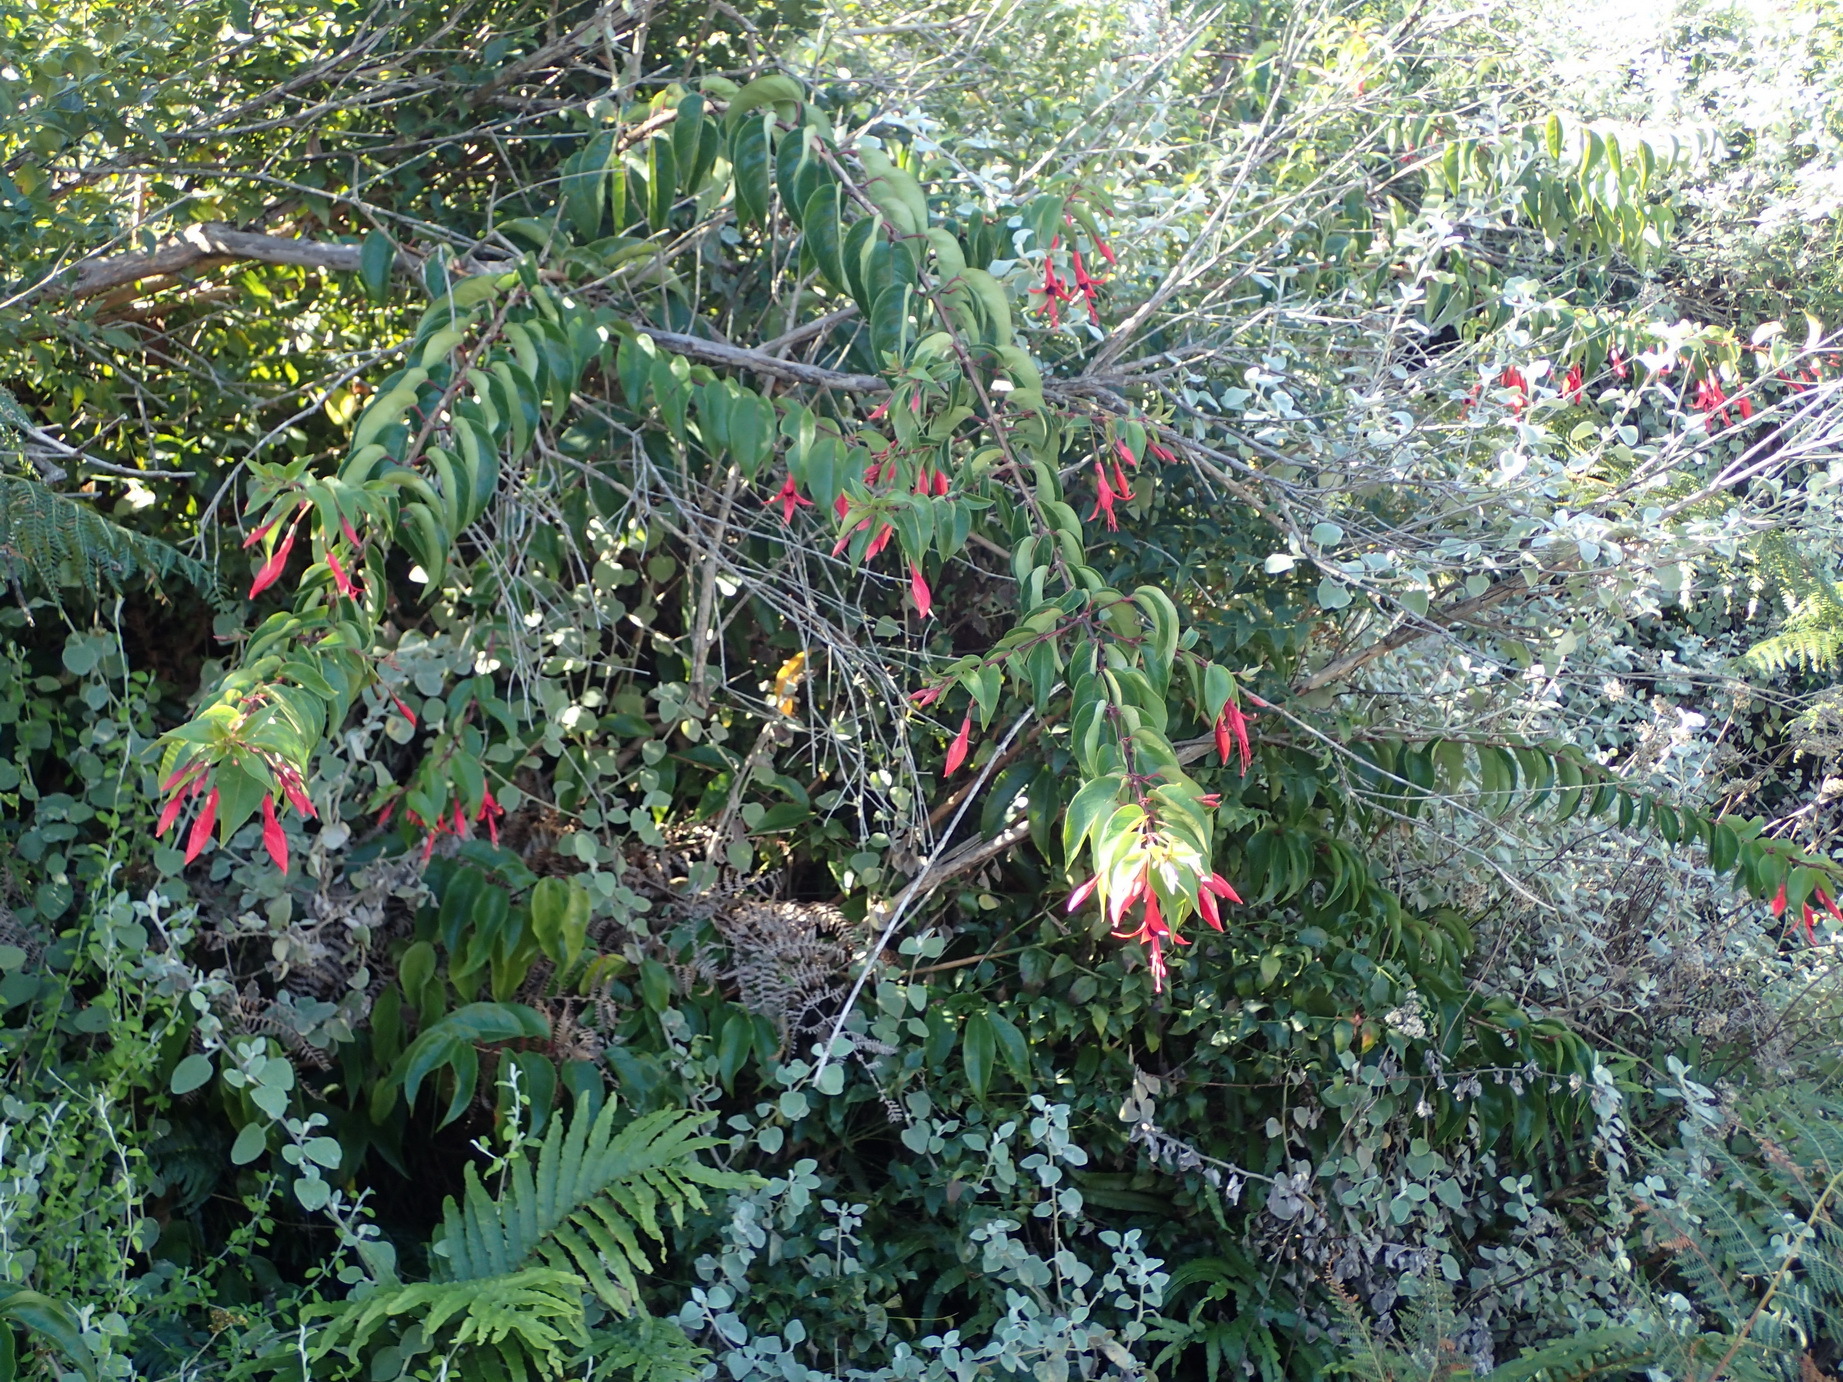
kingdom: Plantae
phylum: Tracheophyta
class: Magnoliopsida
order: Myrtales
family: Onagraceae
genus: Fuchsia
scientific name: Fuchsia regia
